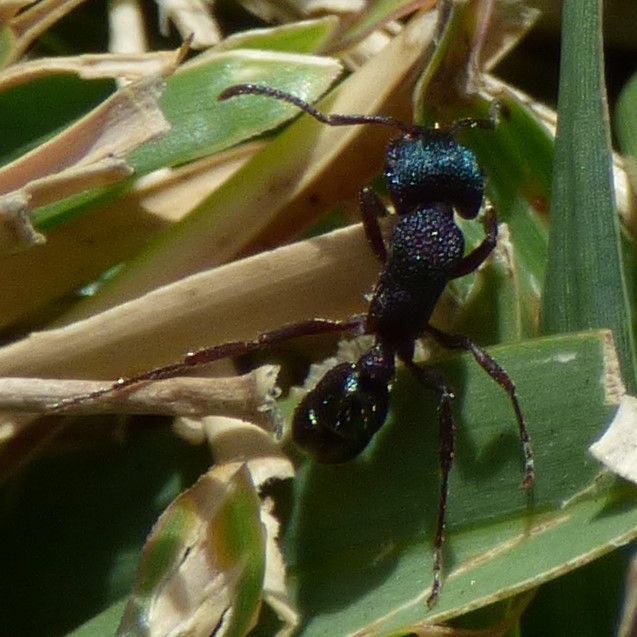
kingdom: Animalia
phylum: Arthropoda
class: Insecta
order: Hymenoptera
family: Formicidae
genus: Rhytidoponera
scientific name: Rhytidoponera metallica
